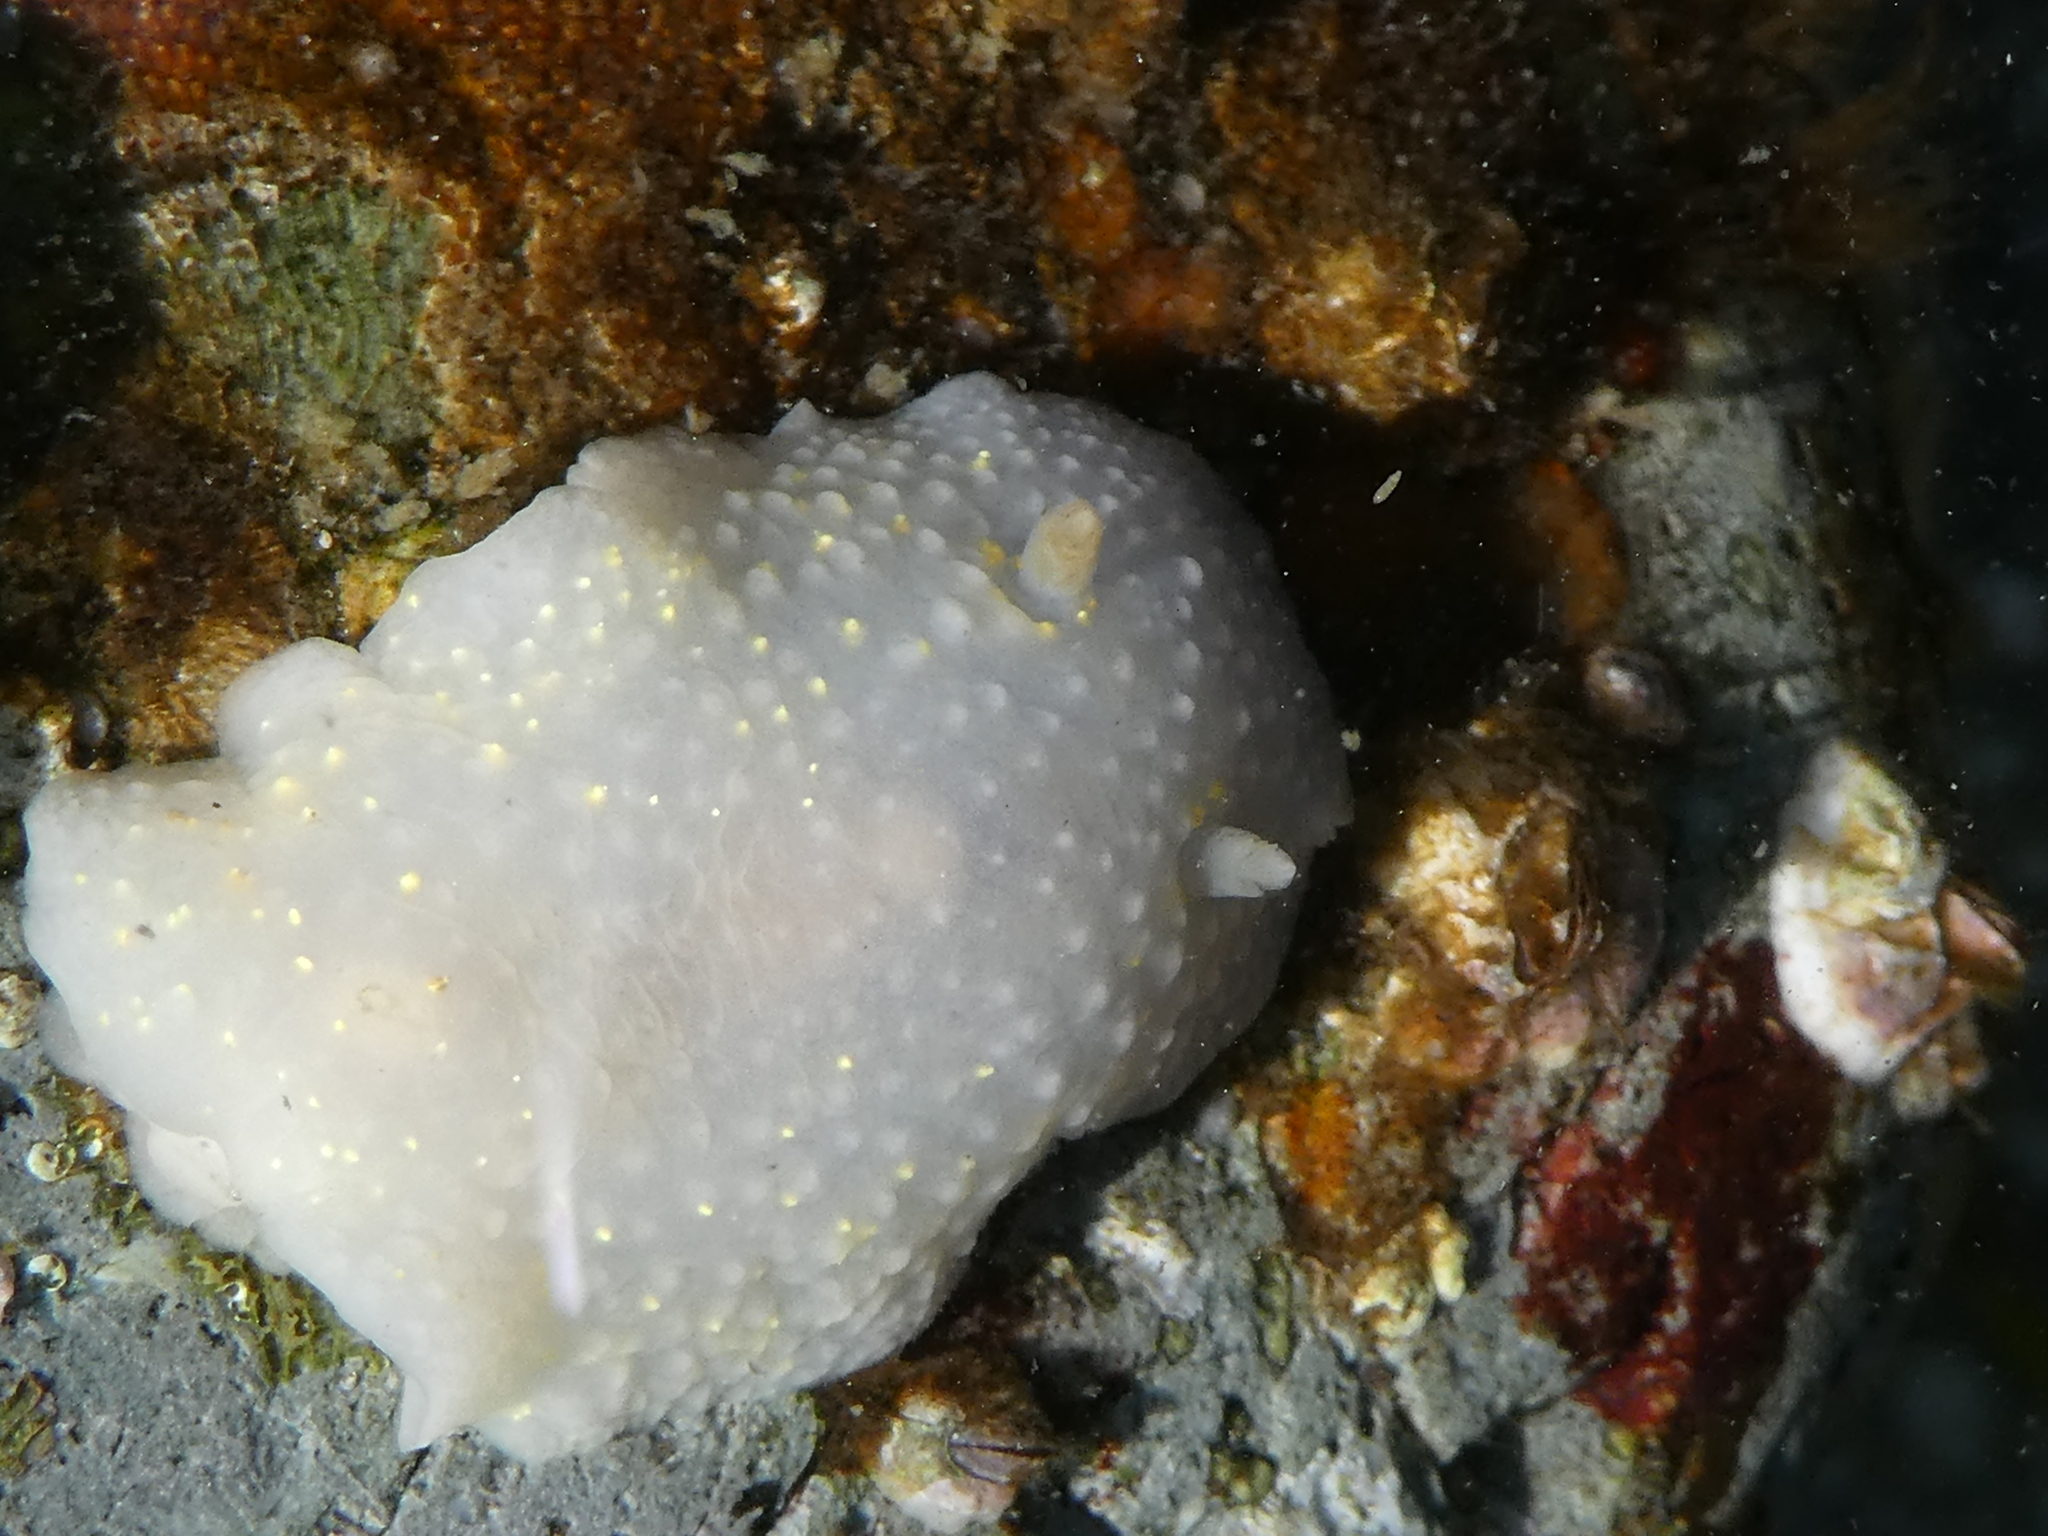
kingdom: Animalia
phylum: Mollusca
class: Gastropoda
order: Nudibranchia
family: Cadlinidae
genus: Cadlina
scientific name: Cadlina modesta
